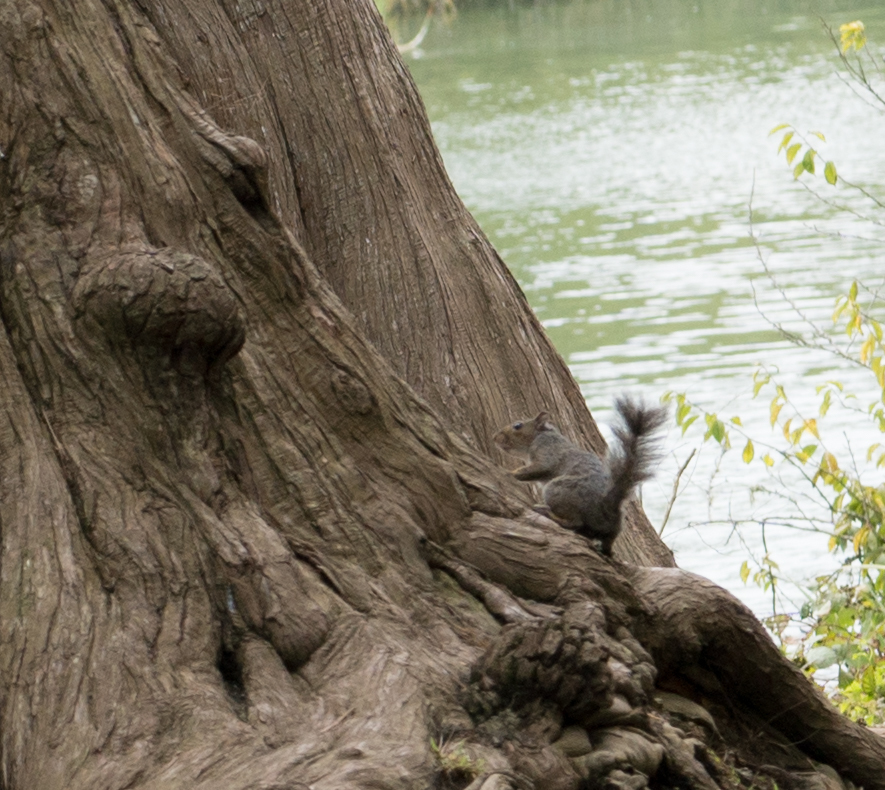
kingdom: Animalia
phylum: Chordata
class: Mammalia
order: Rodentia
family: Sciuridae
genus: Sciurus
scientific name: Sciurus carolinensis
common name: Eastern gray squirrel
